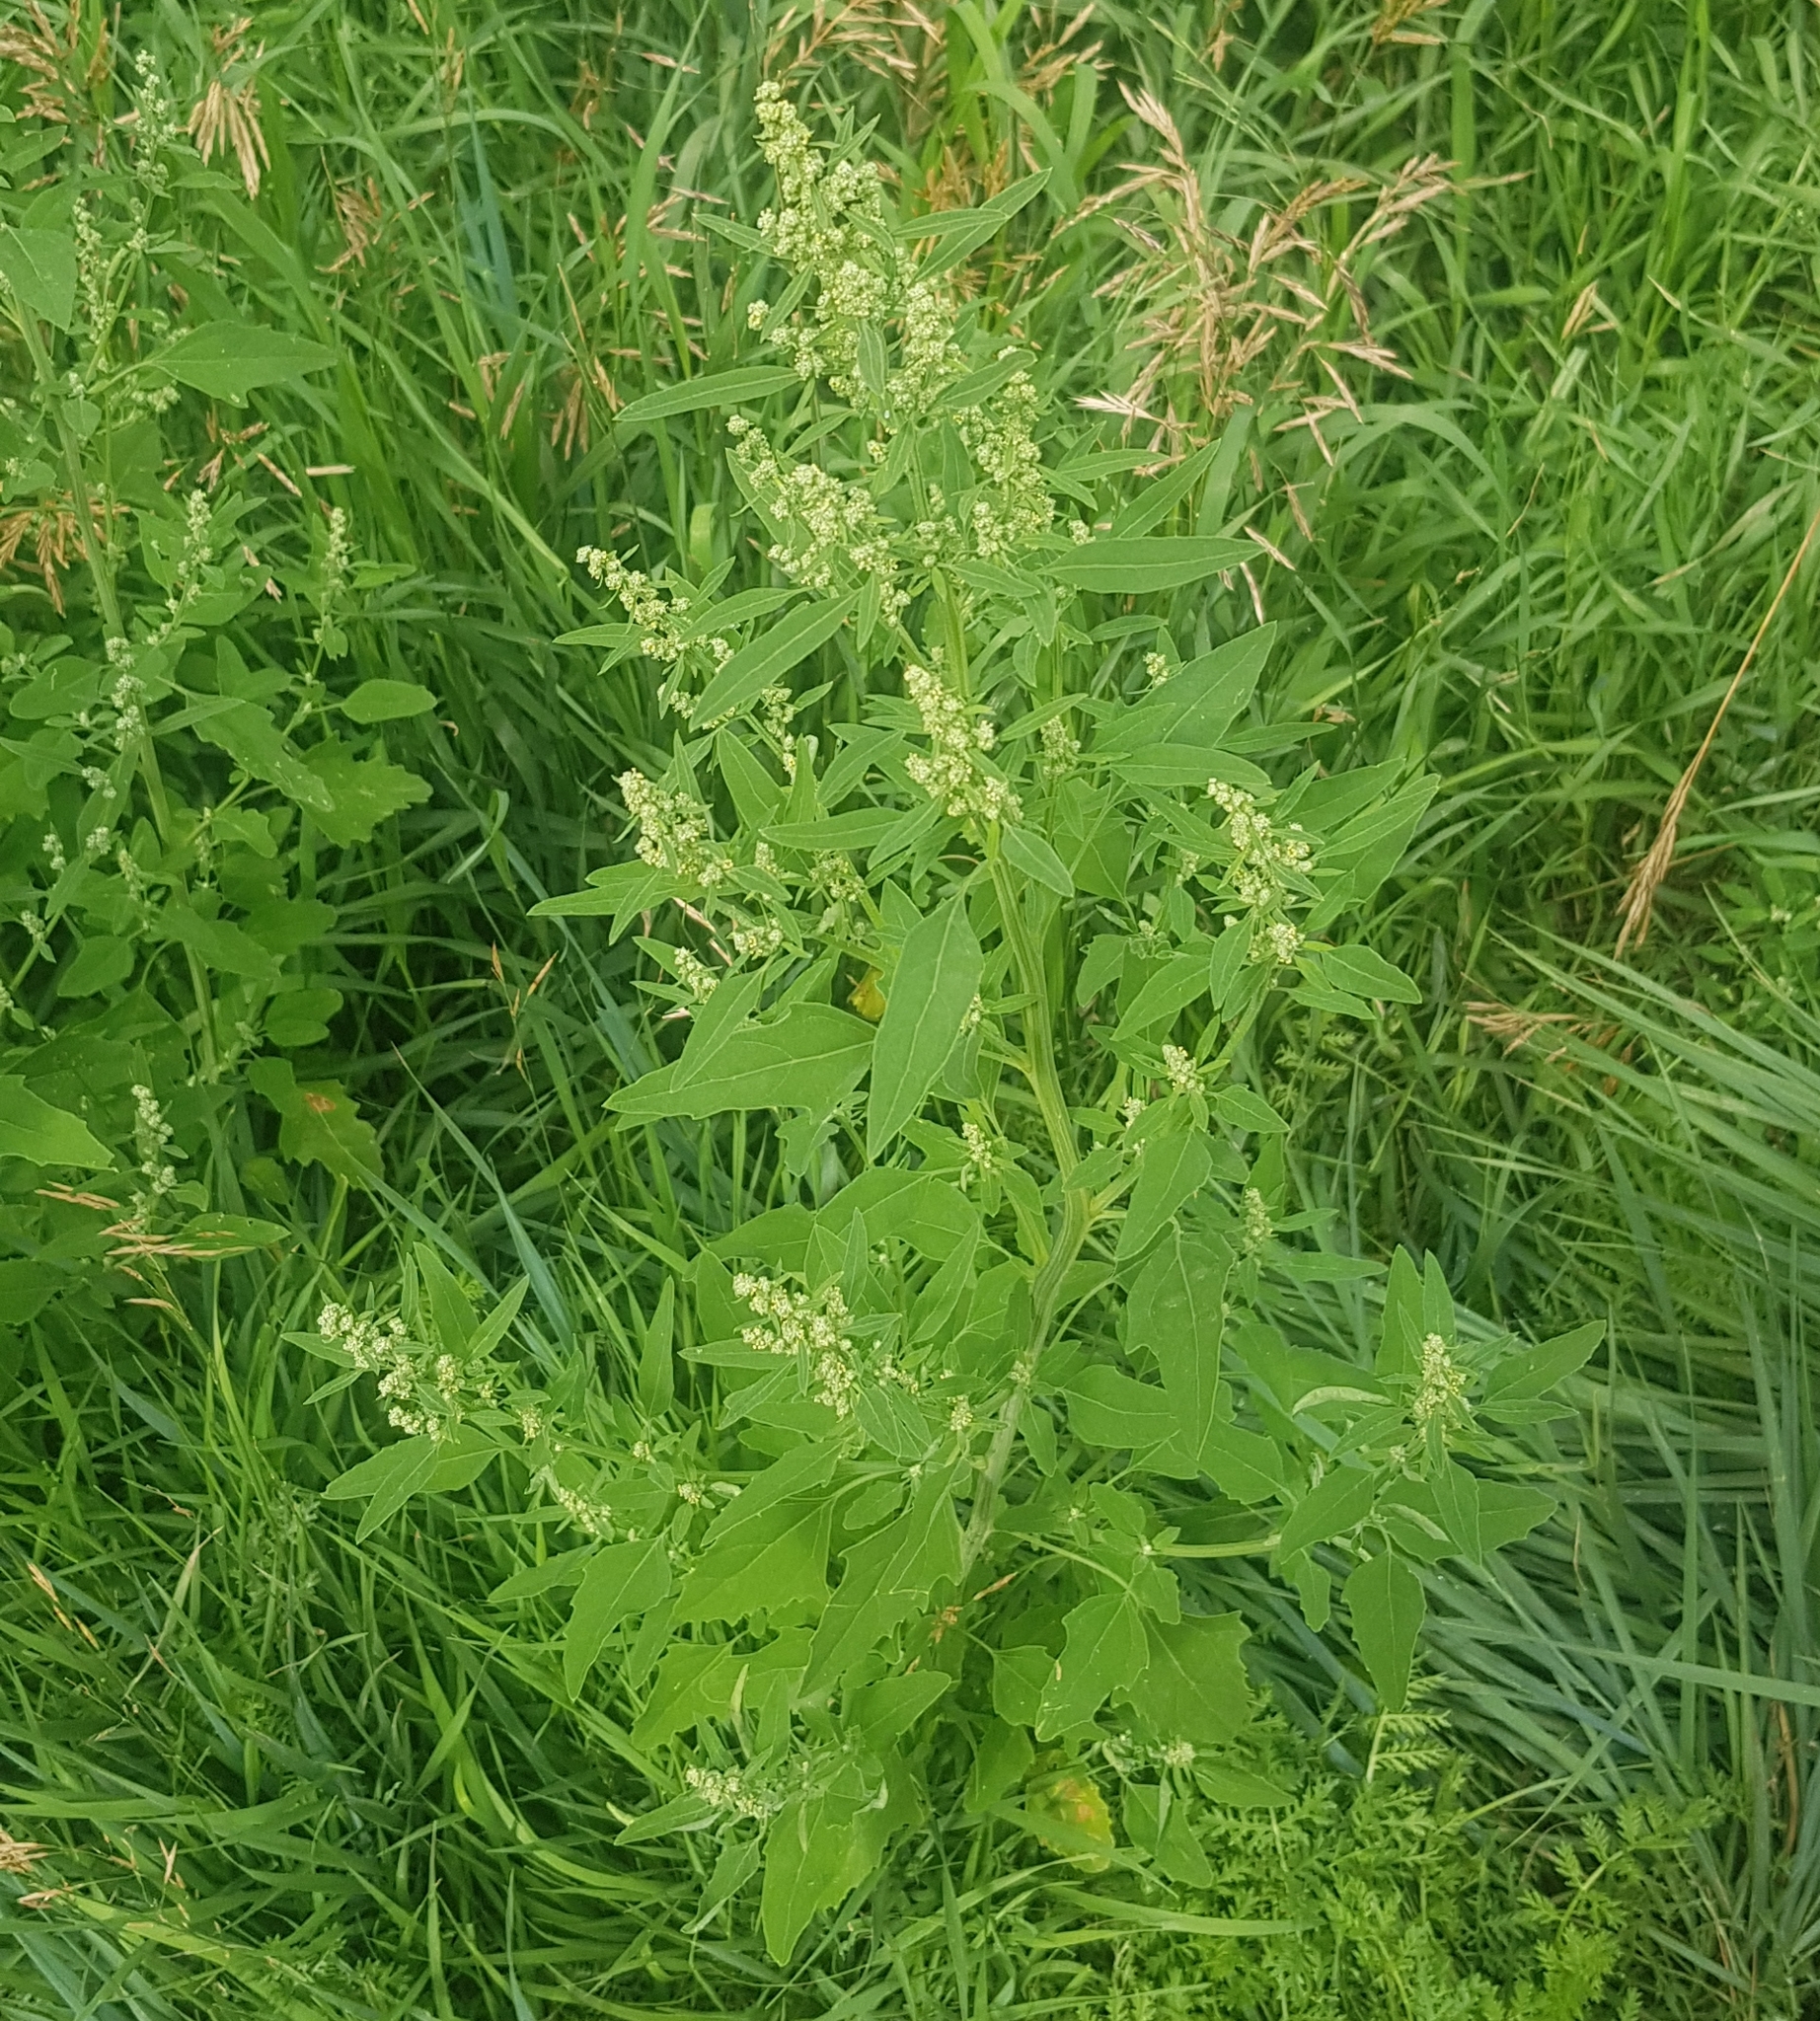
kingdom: Plantae
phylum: Tracheophyta
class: Magnoliopsida
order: Caryophyllales
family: Amaranthaceae
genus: Chenopodium
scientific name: Chenopodium album
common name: Fat-hen
